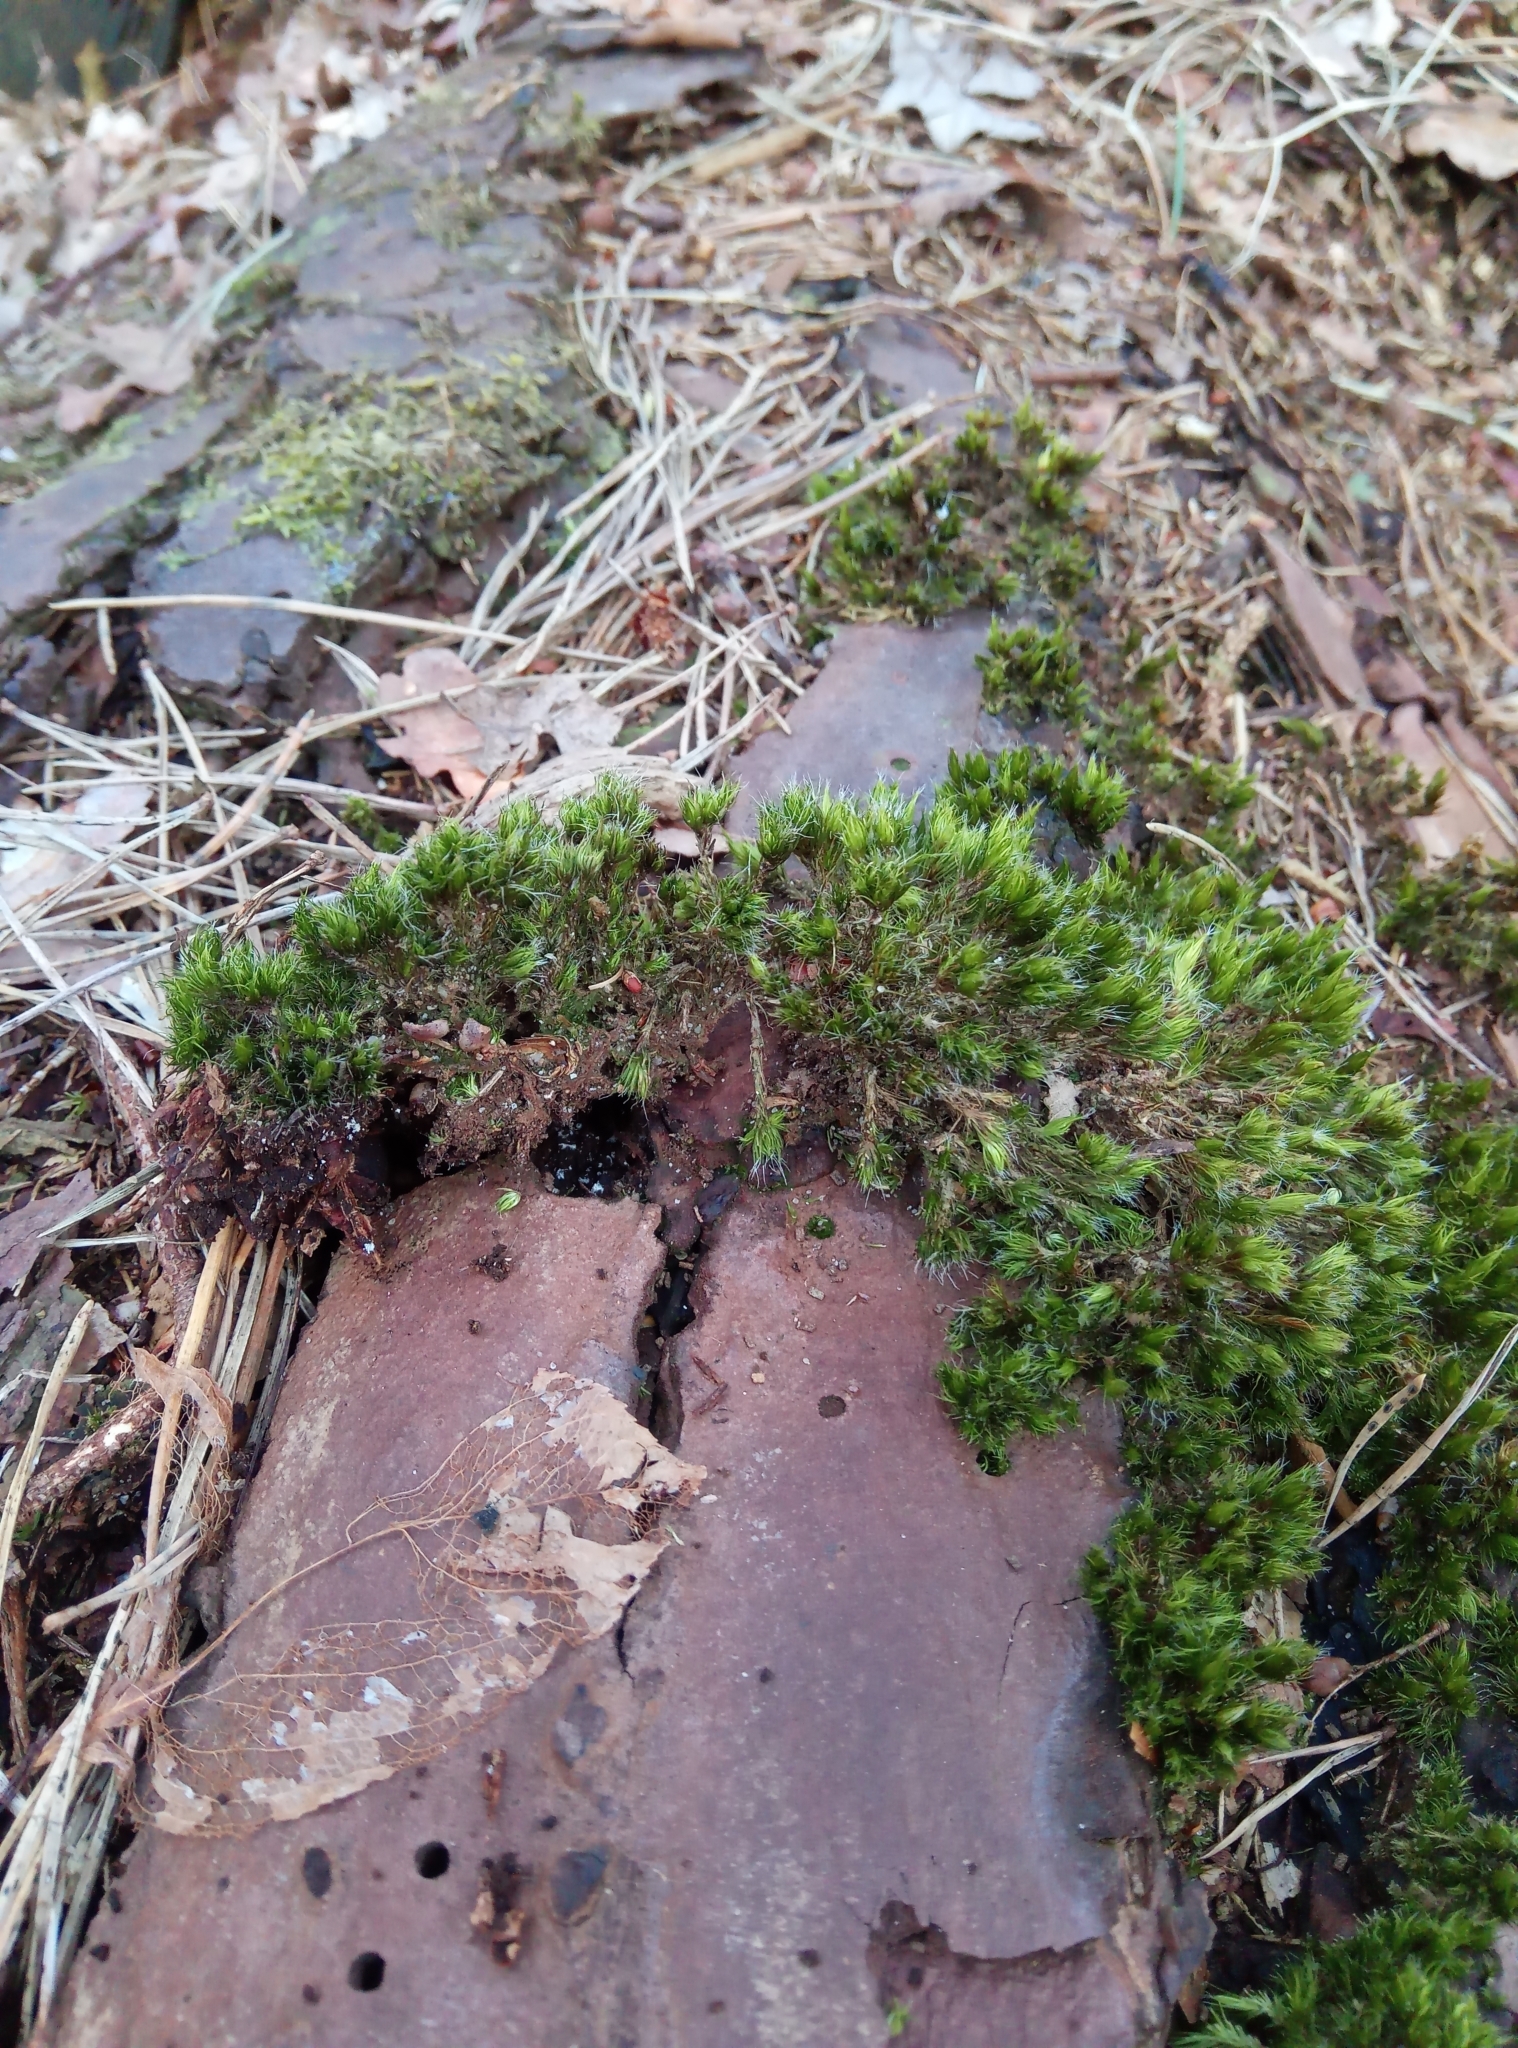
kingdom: Plantae
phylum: Bryophyta
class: Bryopsida
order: Dicranales
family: Leucobryaceae
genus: Campylopus
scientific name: Campylopus introflexus
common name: Heath star moss
